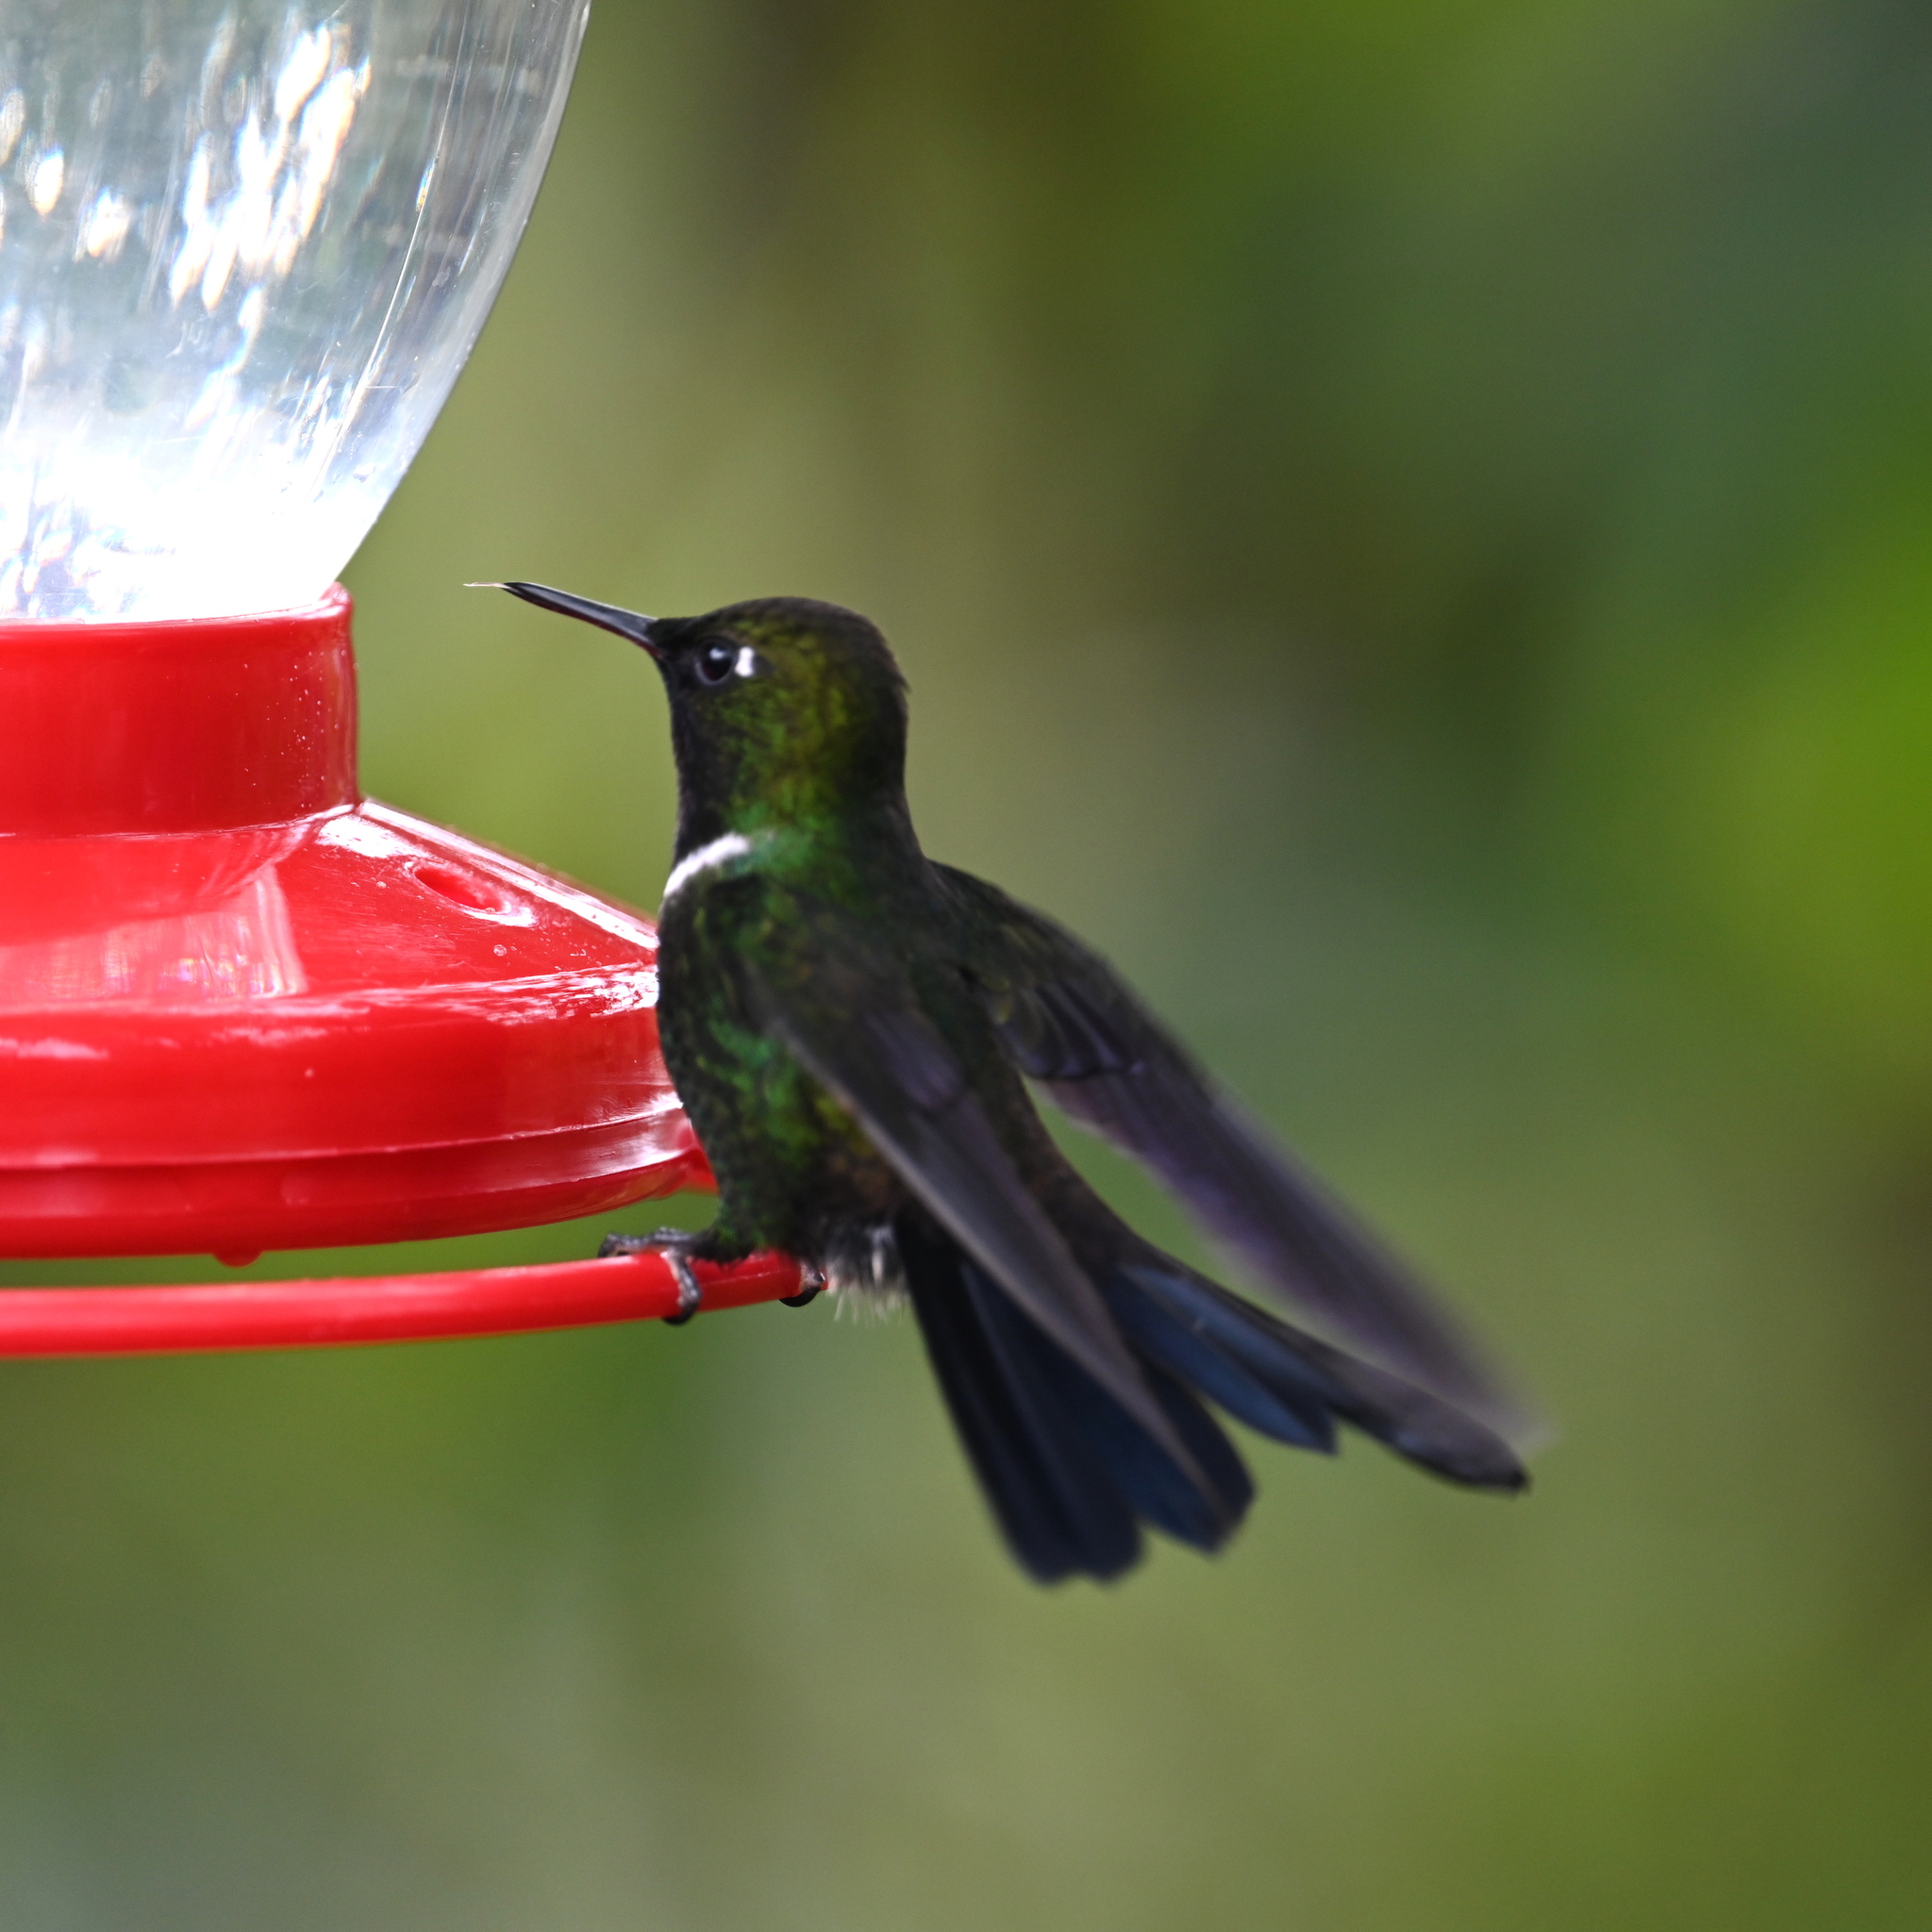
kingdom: Animalia
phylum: Chordata
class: Aves
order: Apodiformes
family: Trochilidae
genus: Heliangelus
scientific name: Heliangelus strophianus
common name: Gorgeted sunangel
